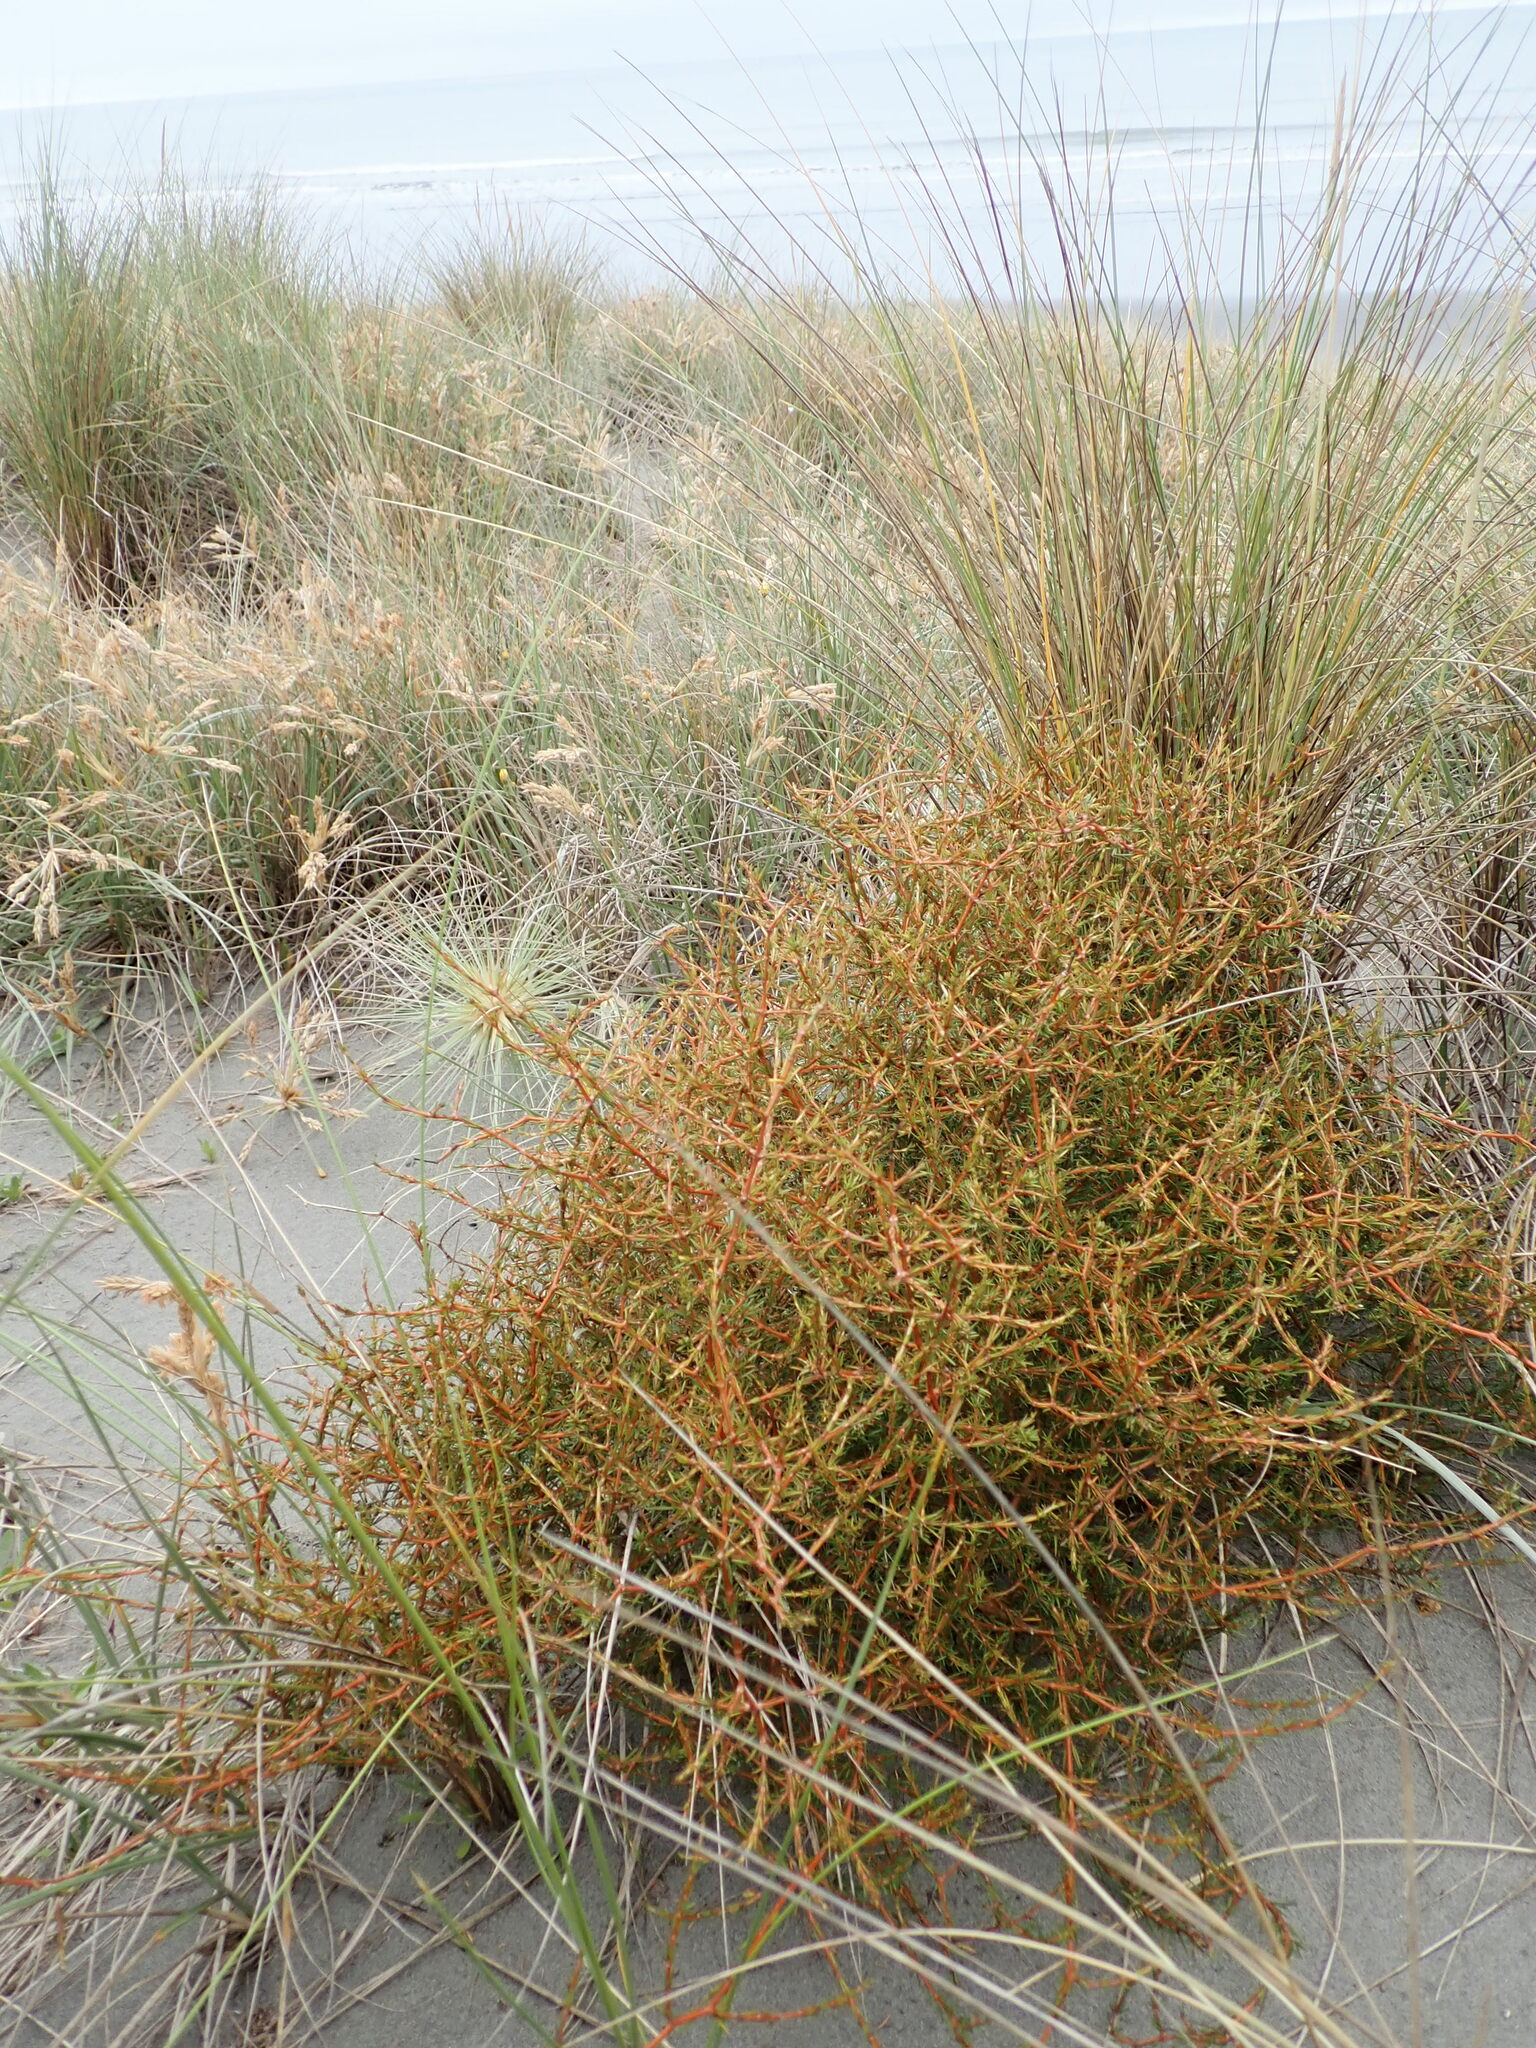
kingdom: Plantae
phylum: Tracheophyta
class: Magnoliopsida
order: Gentianales
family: Rubiaceae
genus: Coprosma
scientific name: Coprosma acerosa
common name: Sand coprosma
